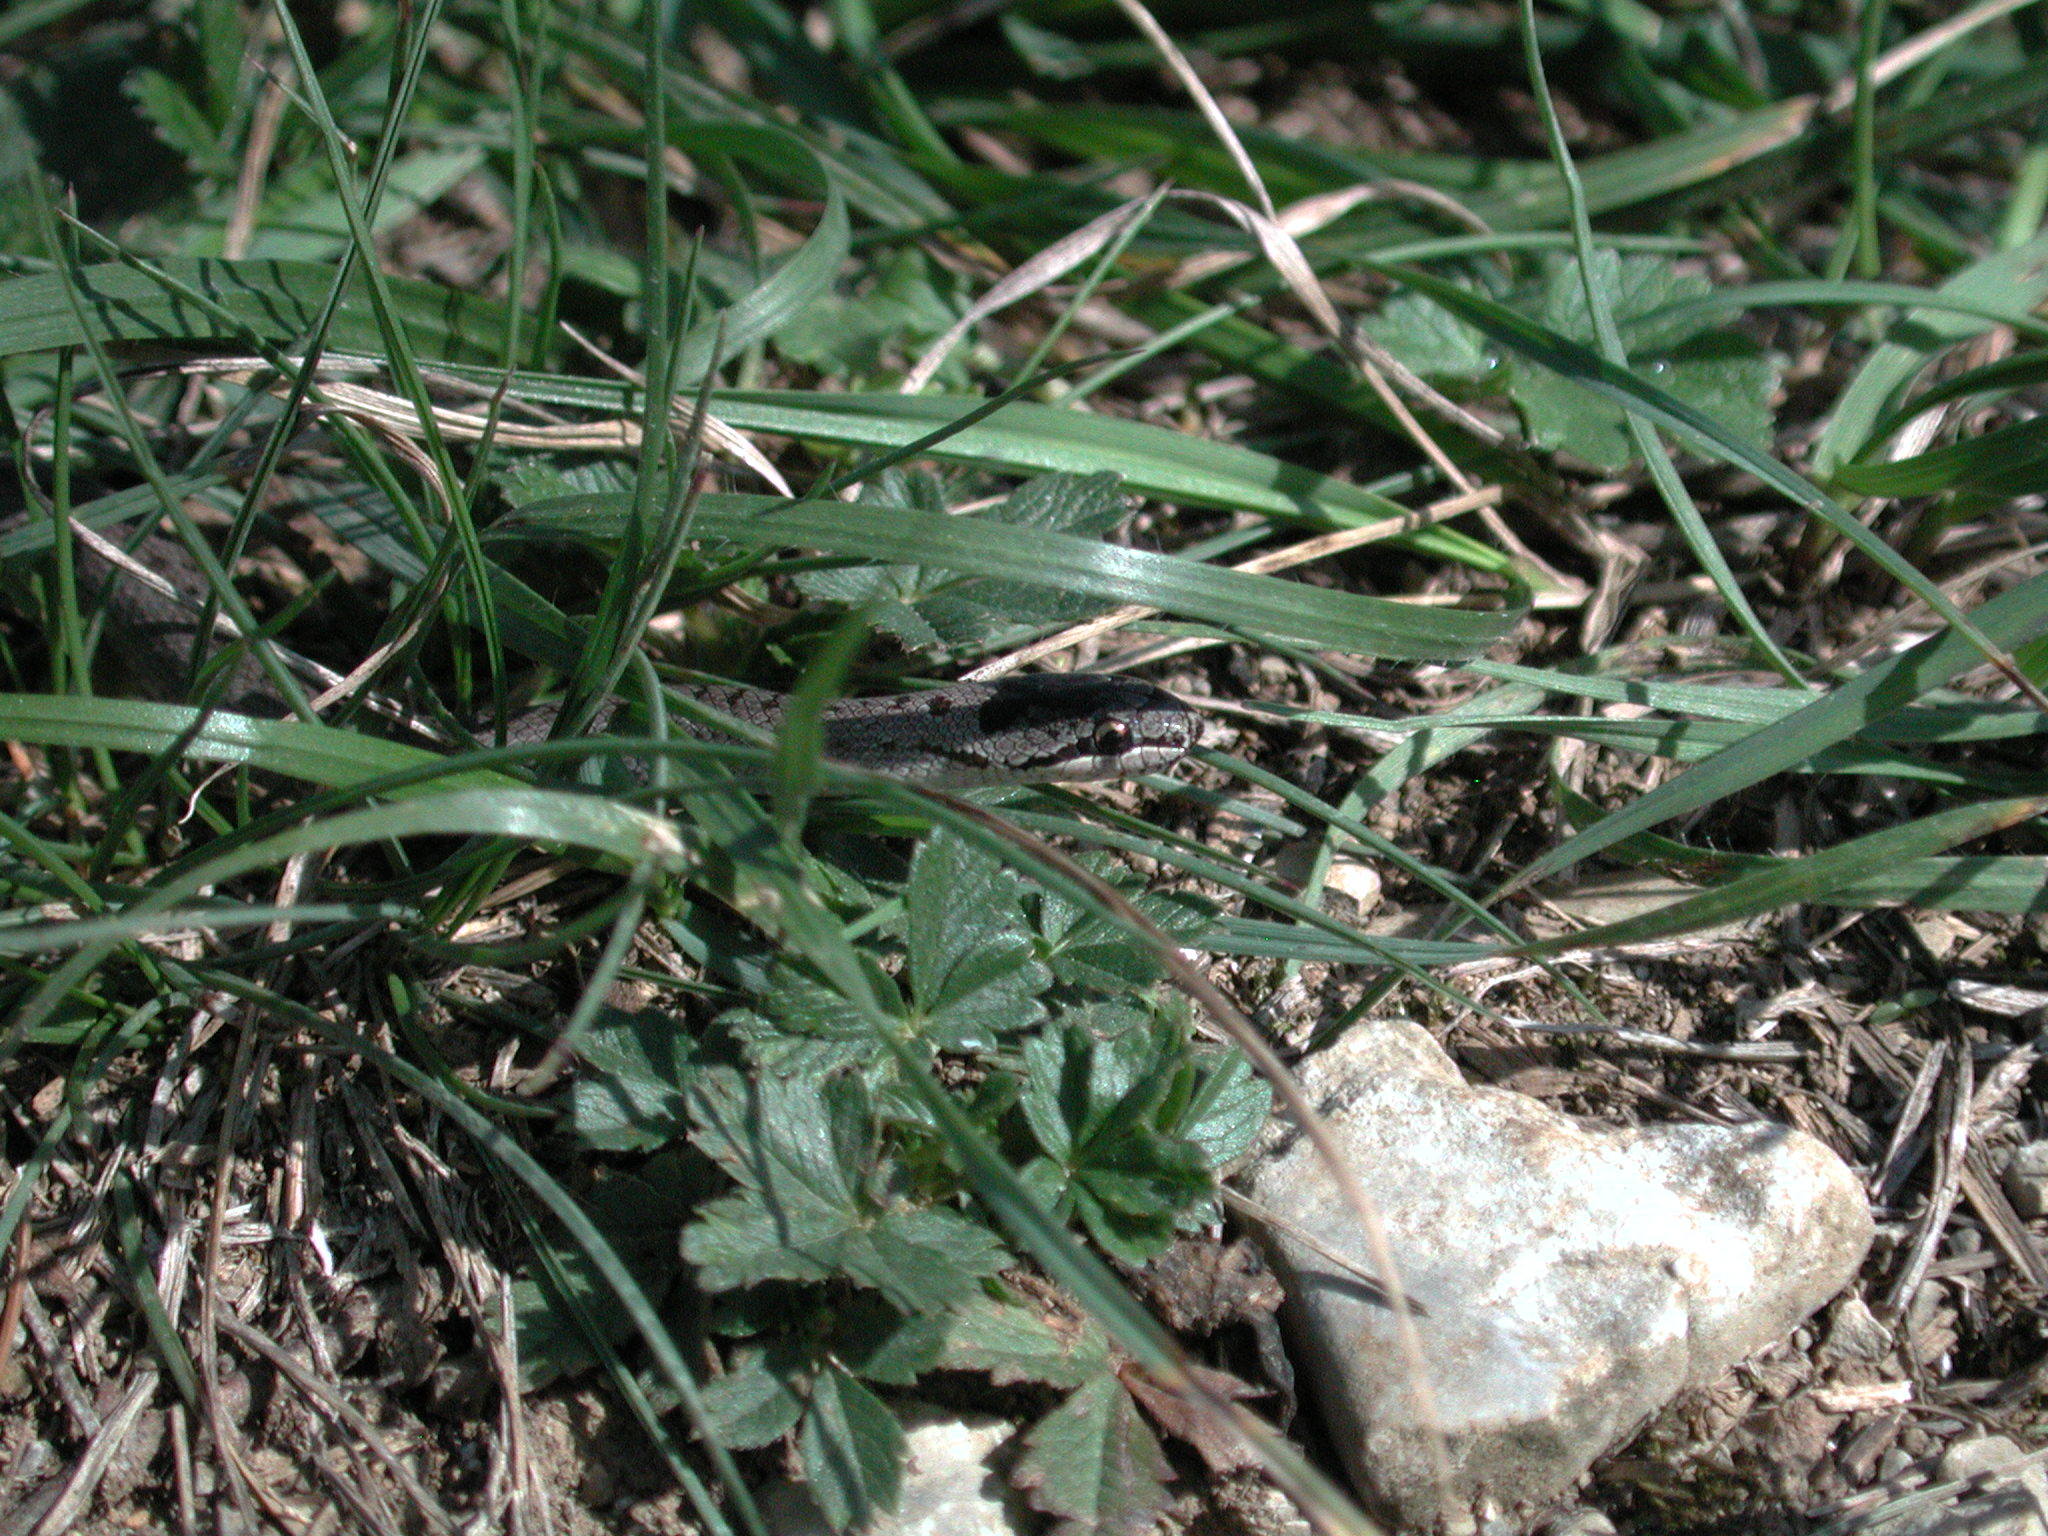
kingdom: Animalia
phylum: Chordata
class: Squamata
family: Colubridae
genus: Coronella
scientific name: Coronella austriaca
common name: Smooth snake
